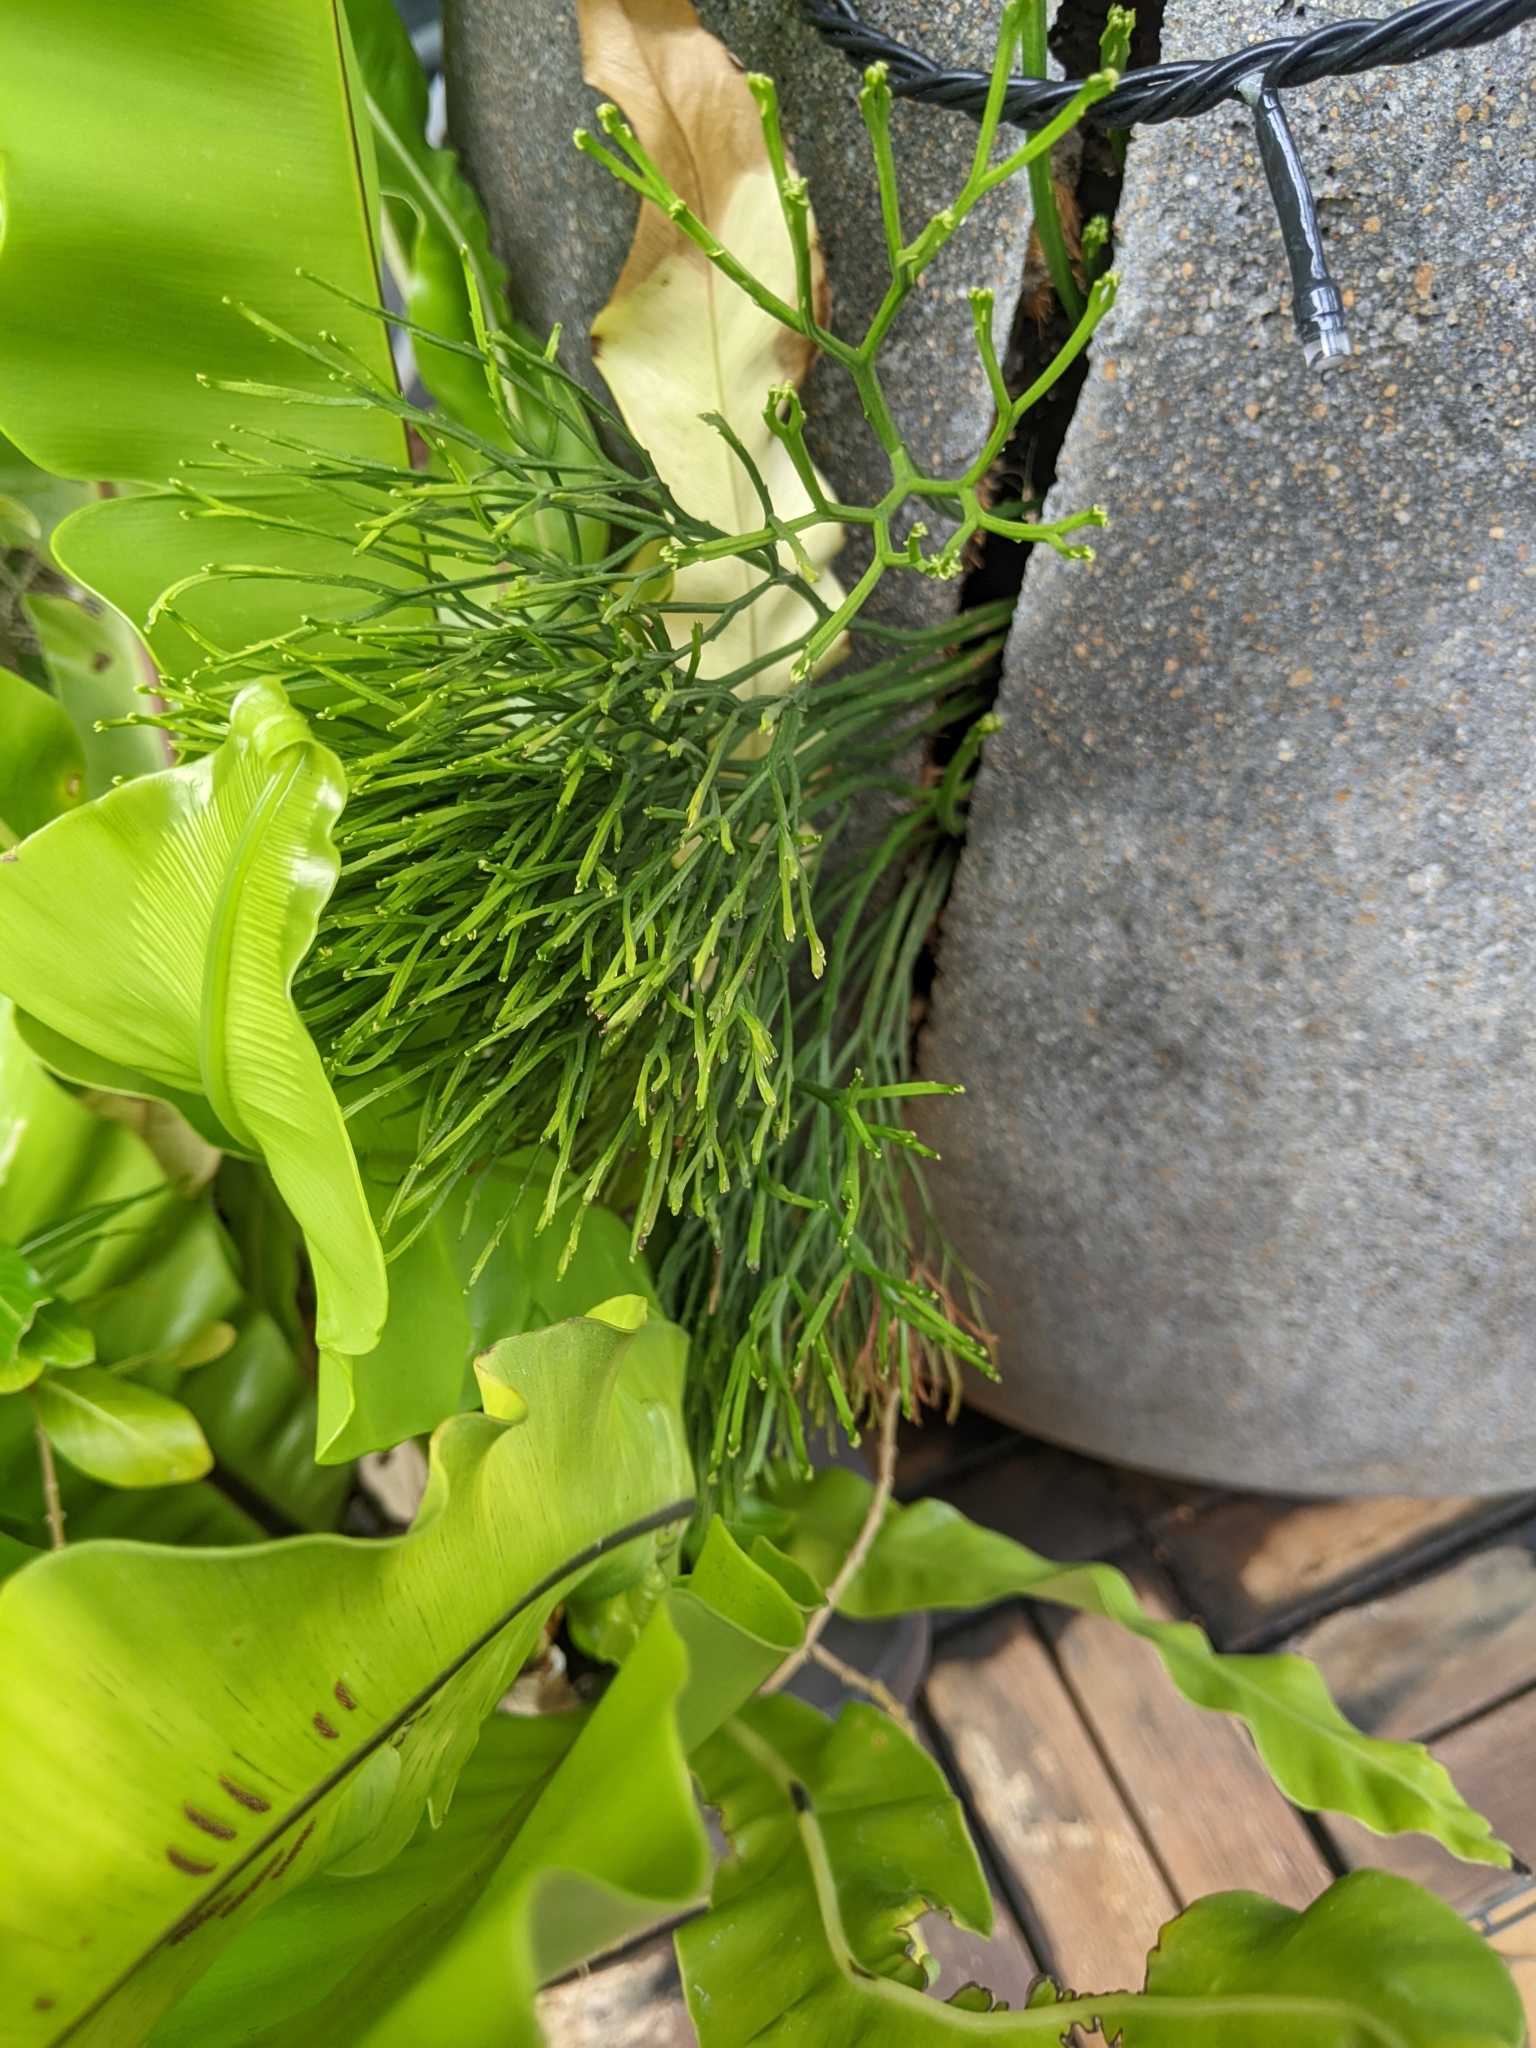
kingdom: Plantae
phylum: Tracheophyta
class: Polypodiopsida
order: Psilotales
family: Psilotaceae
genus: Psilotum
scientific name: Psilotum nudum
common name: Skeleton fork fern
